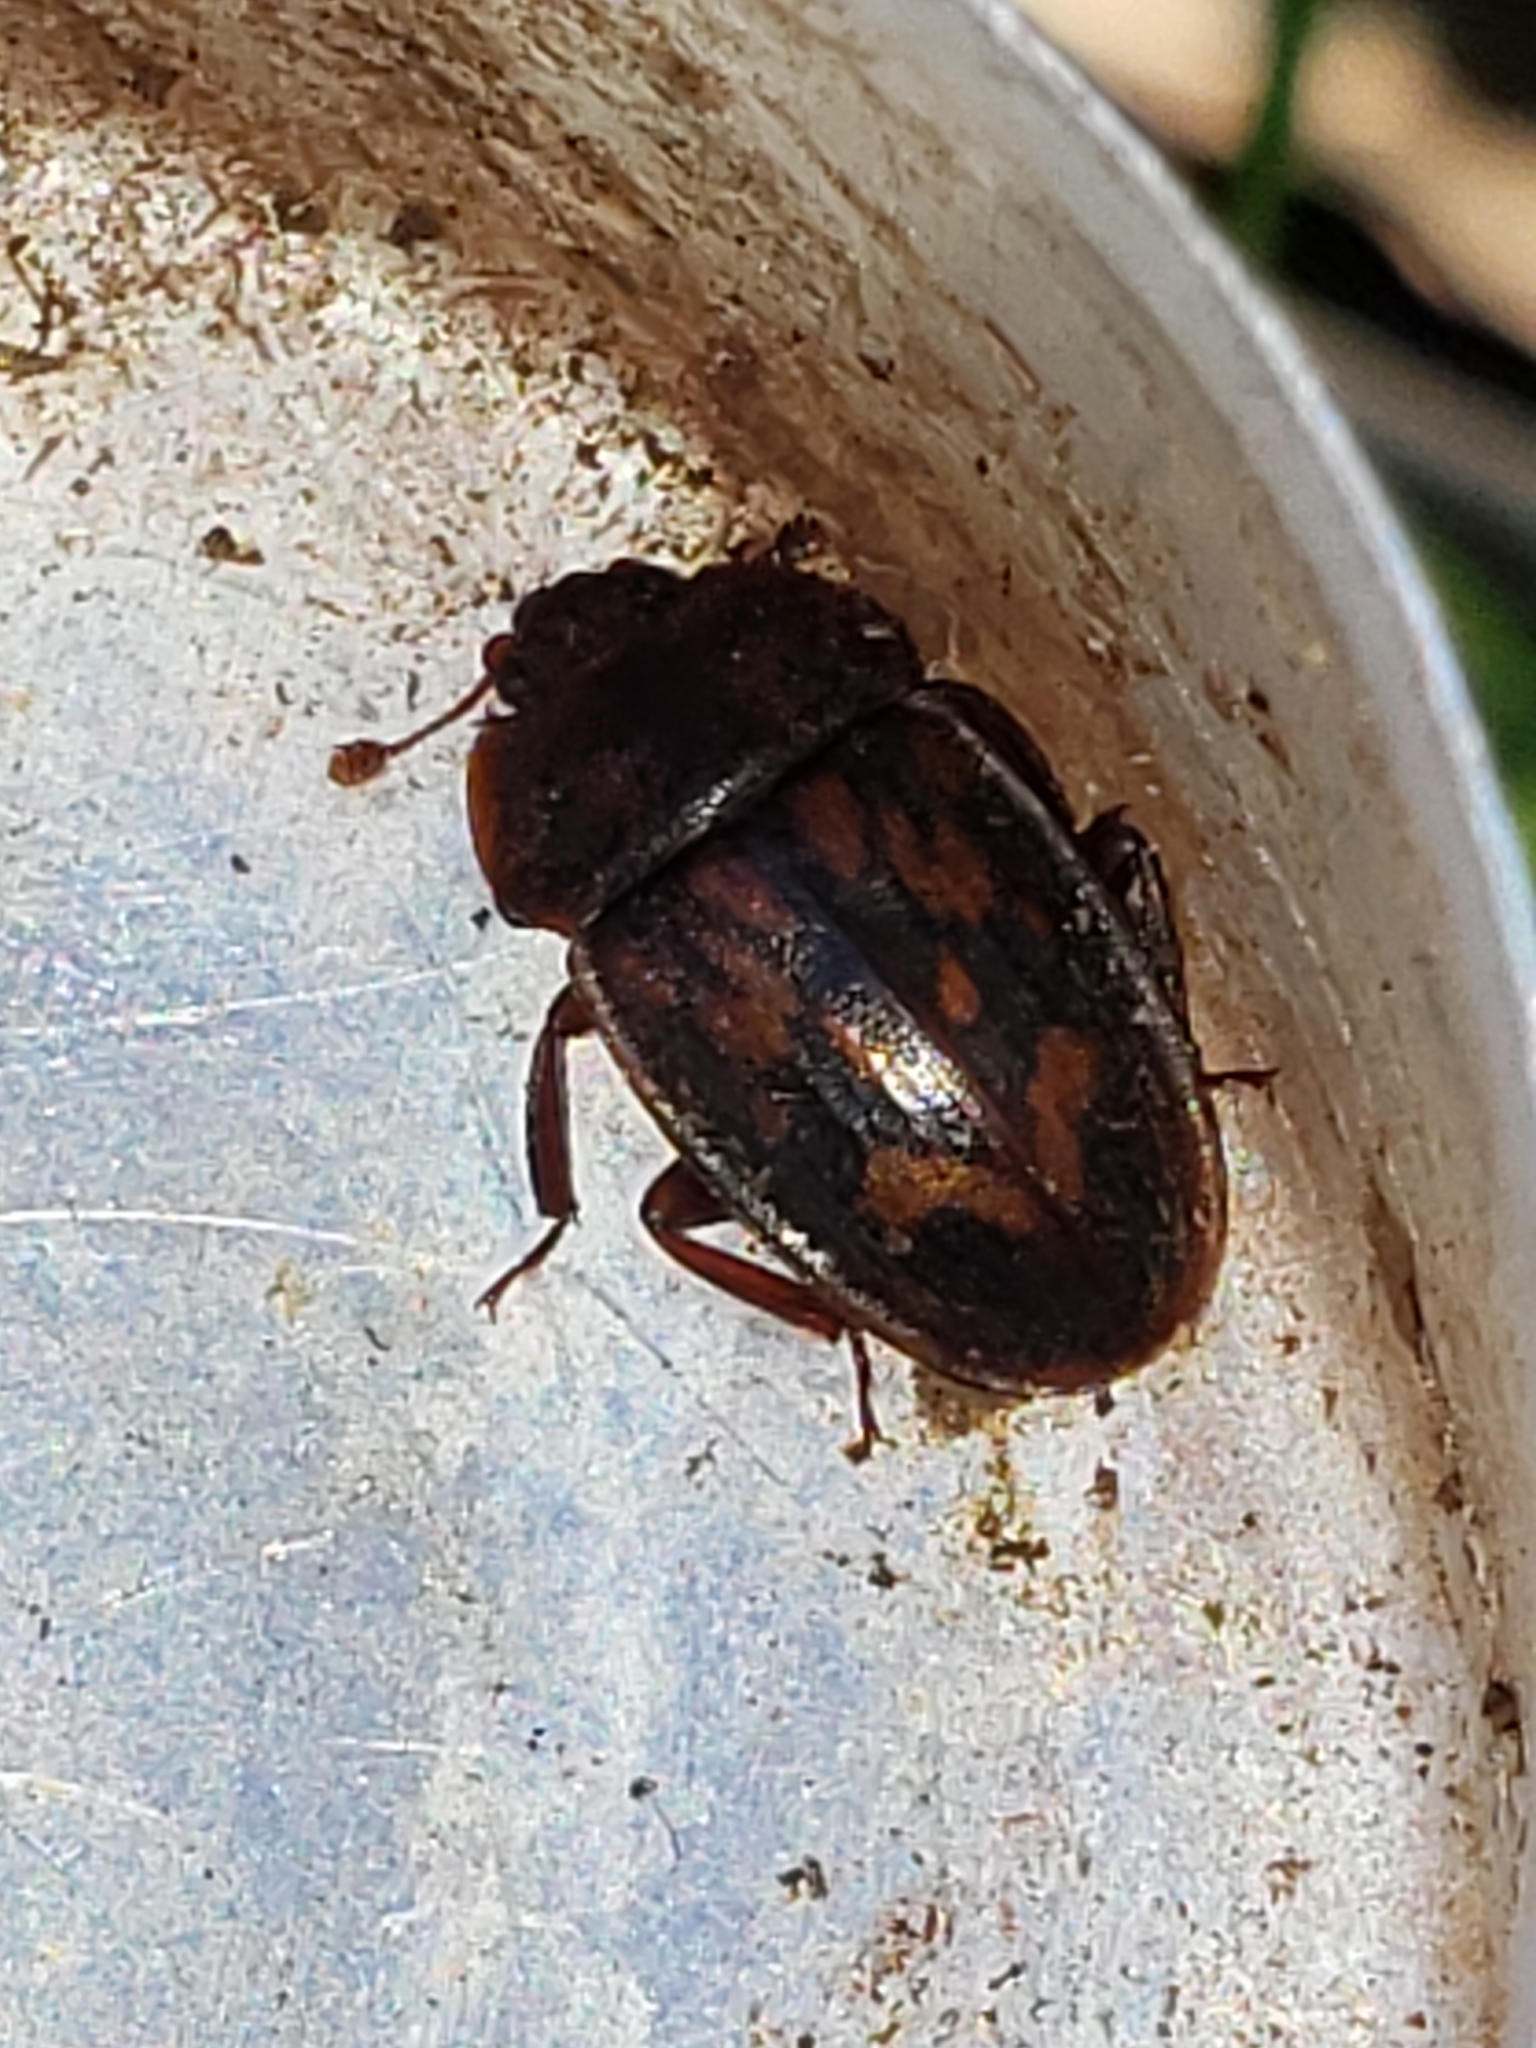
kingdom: Animalia
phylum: Arthropoda
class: Insecta
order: Coleoptera
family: Nitidulidae
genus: Phenolia
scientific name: Phenolia grossa
